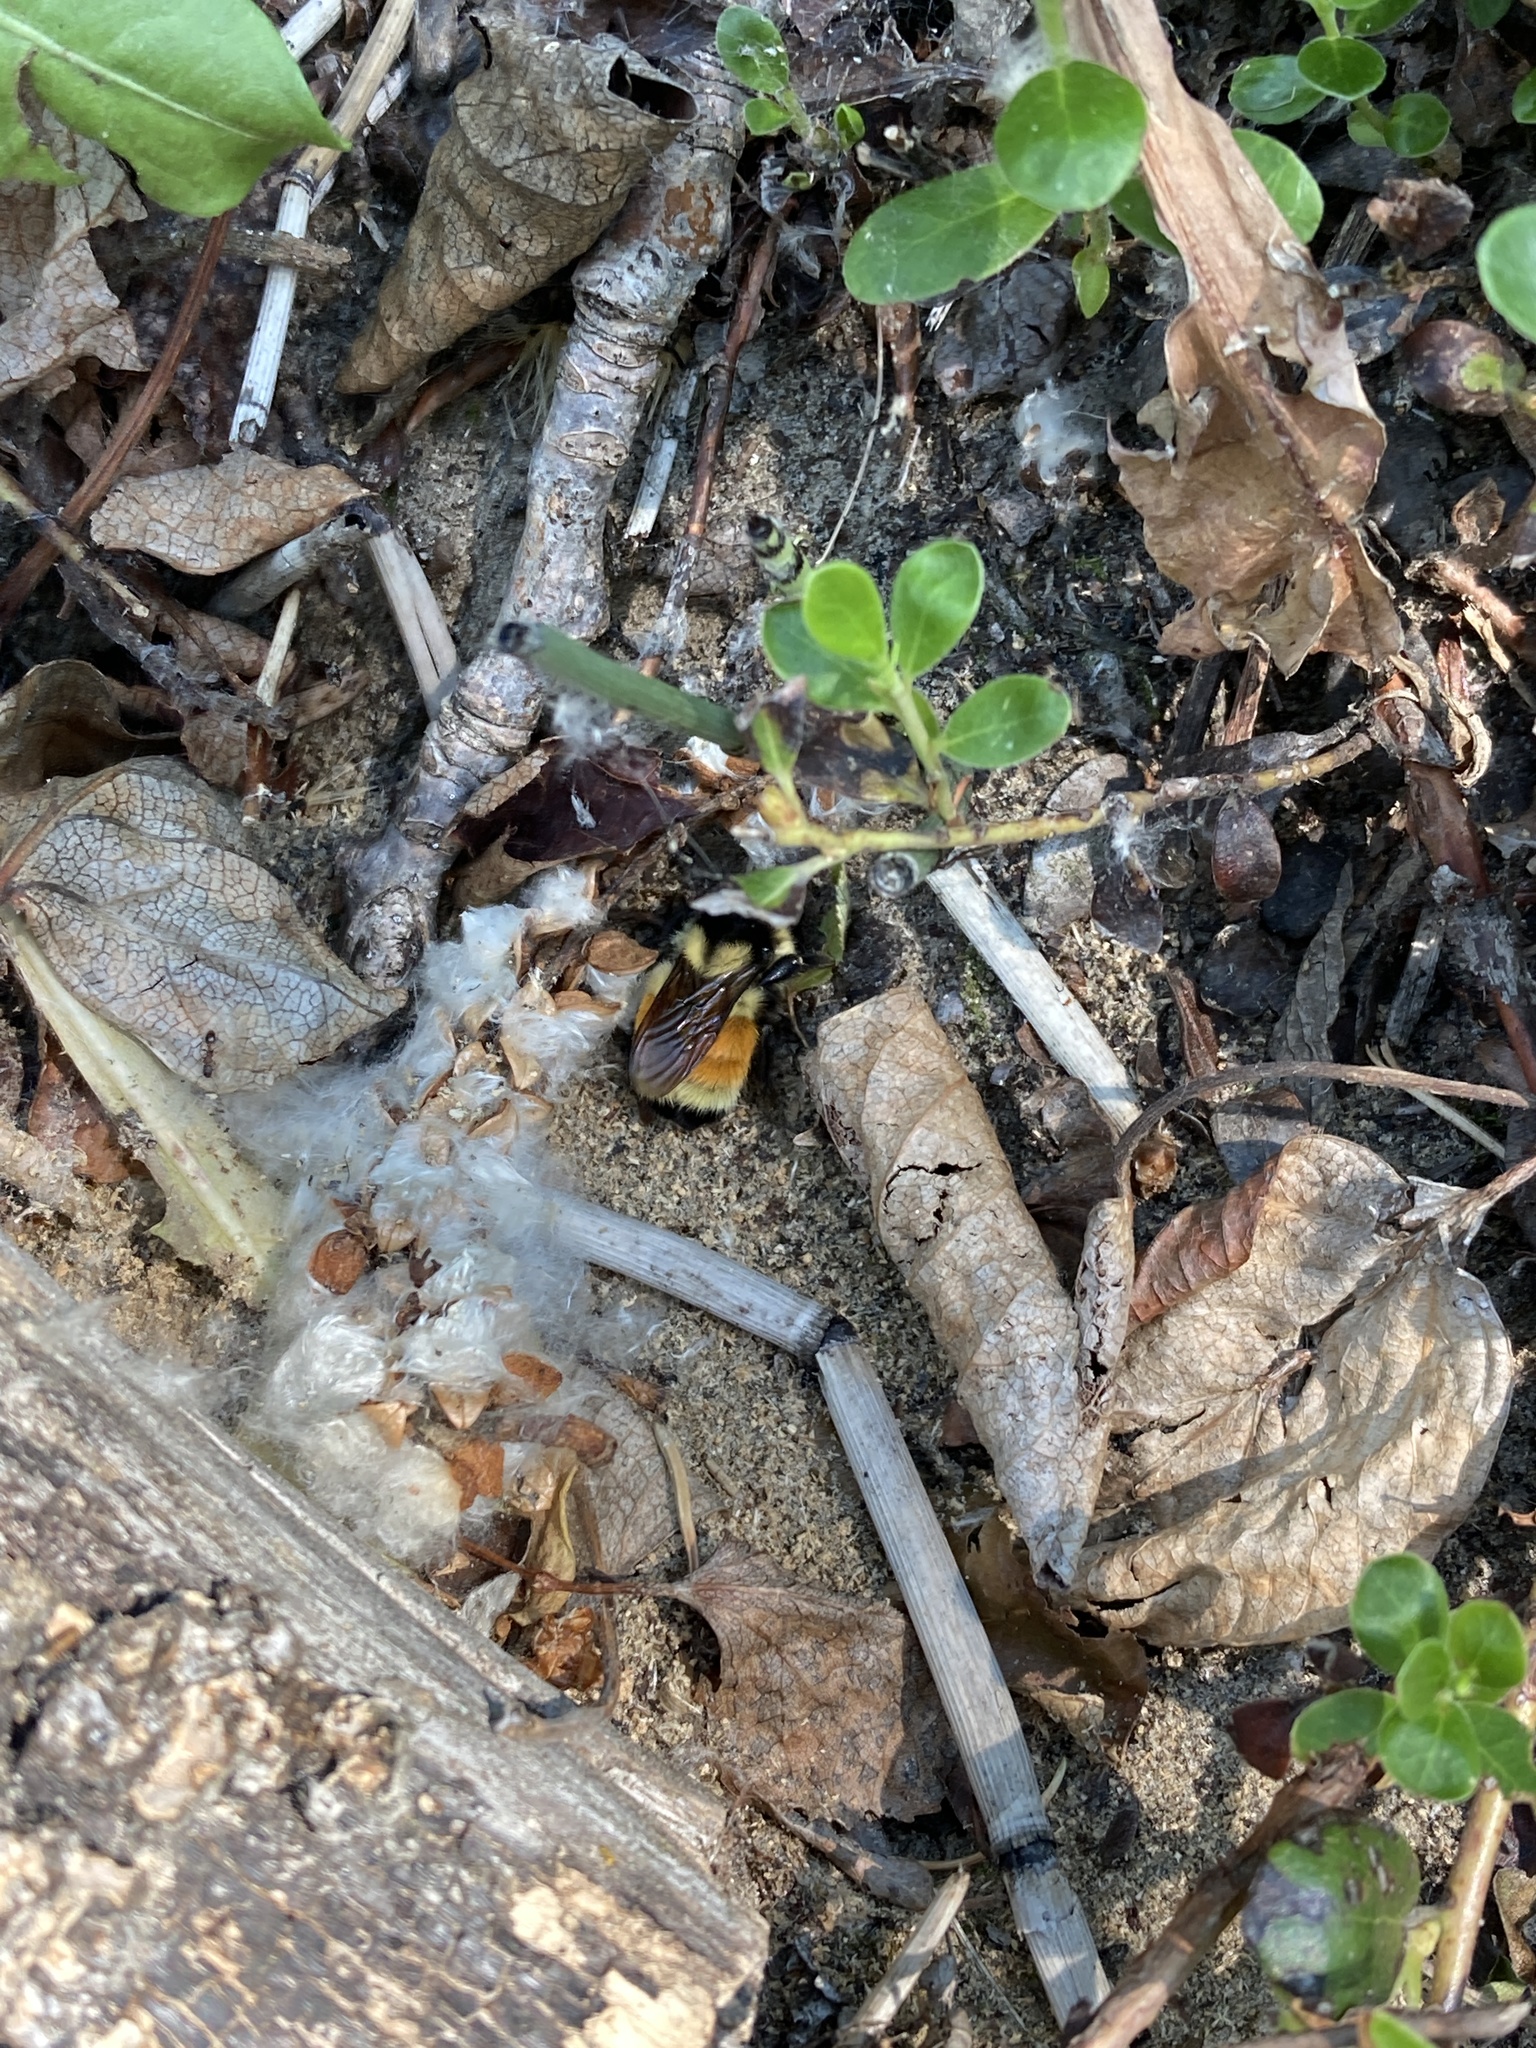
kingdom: Animalia
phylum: Arthropoda
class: Insecta
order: Hymenoptera
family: Apidae
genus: Bombus
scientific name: Bombus ternarius
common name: Tri-colored bumble bee
